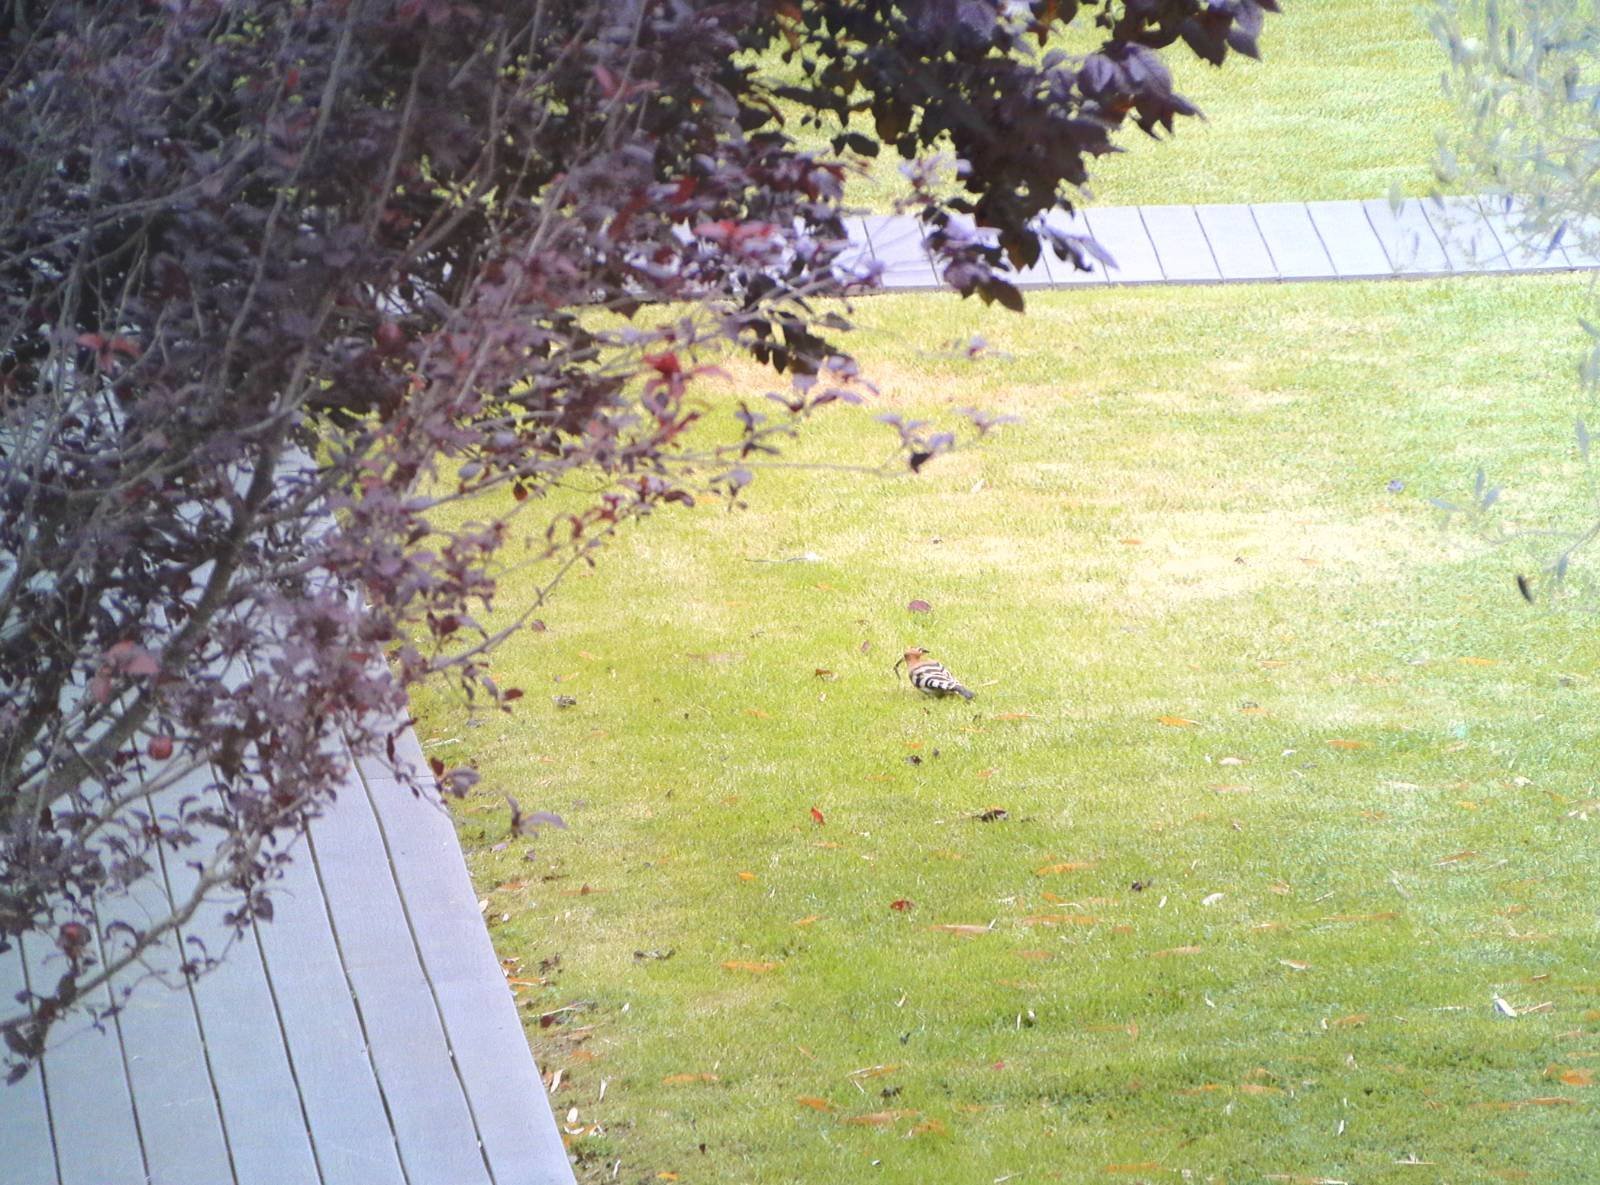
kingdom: Animalia
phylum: Chordata
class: Aves
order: Bucerotiformes
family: Upupidae
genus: Upupa
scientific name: Upupa epops
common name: Eurasian hoopoe
